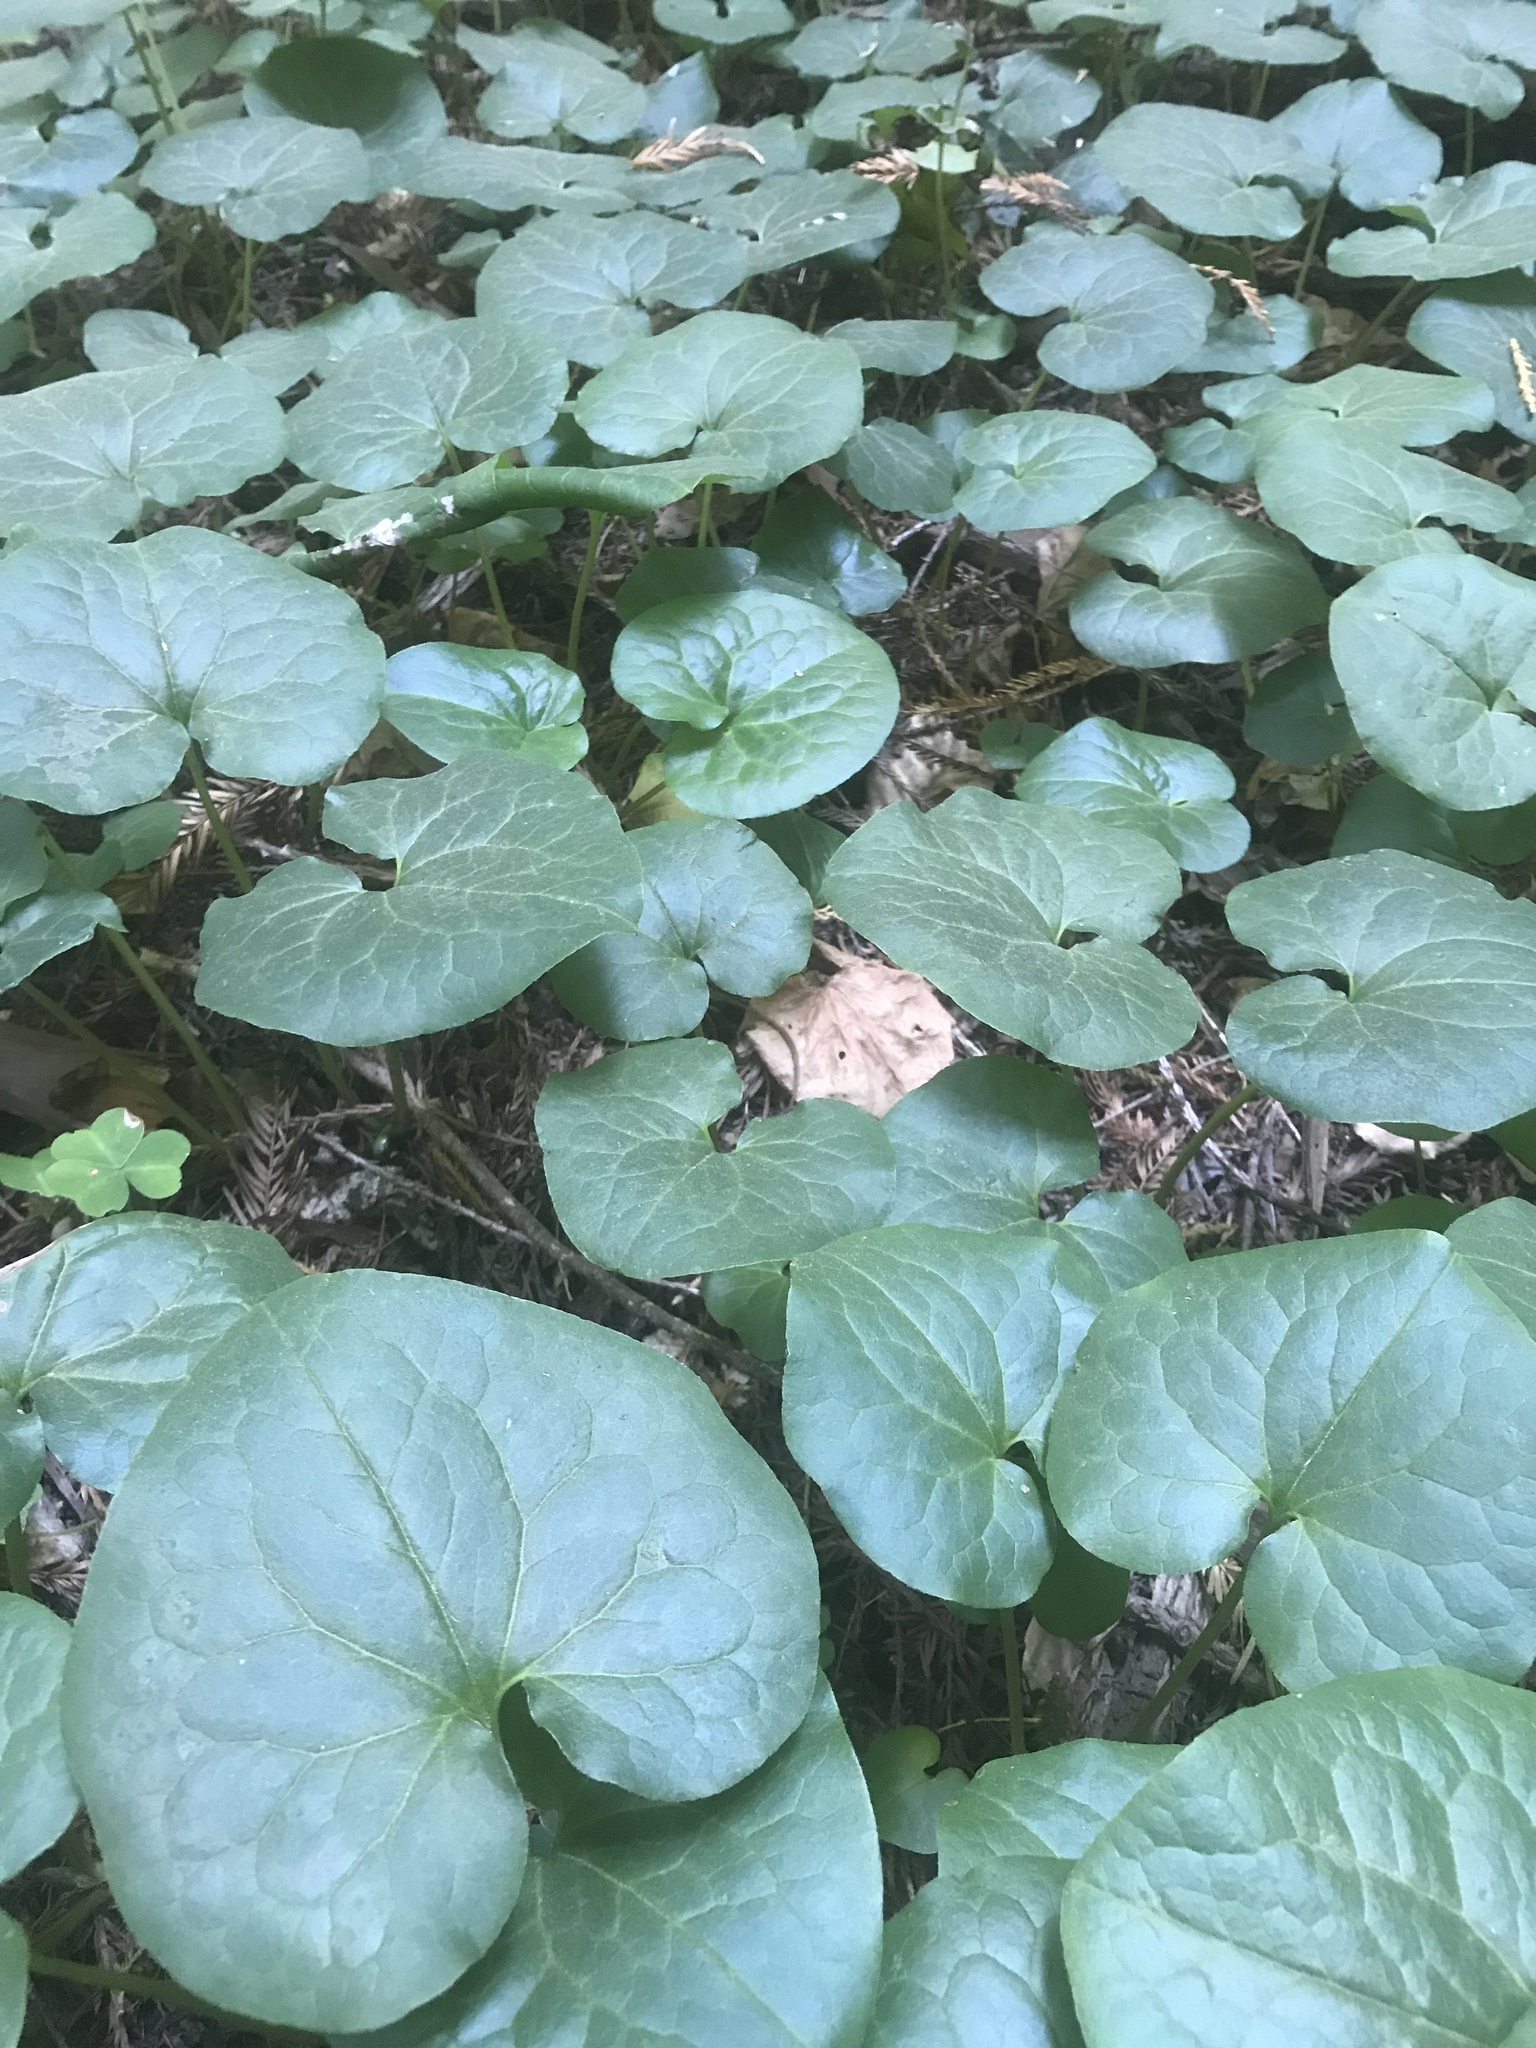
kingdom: Plantae
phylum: Tracheophyta
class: Magnoliopsida
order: Piperales
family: Aristolochiaceae
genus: Asarum
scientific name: Asarum caudatum
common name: Wild ginger
